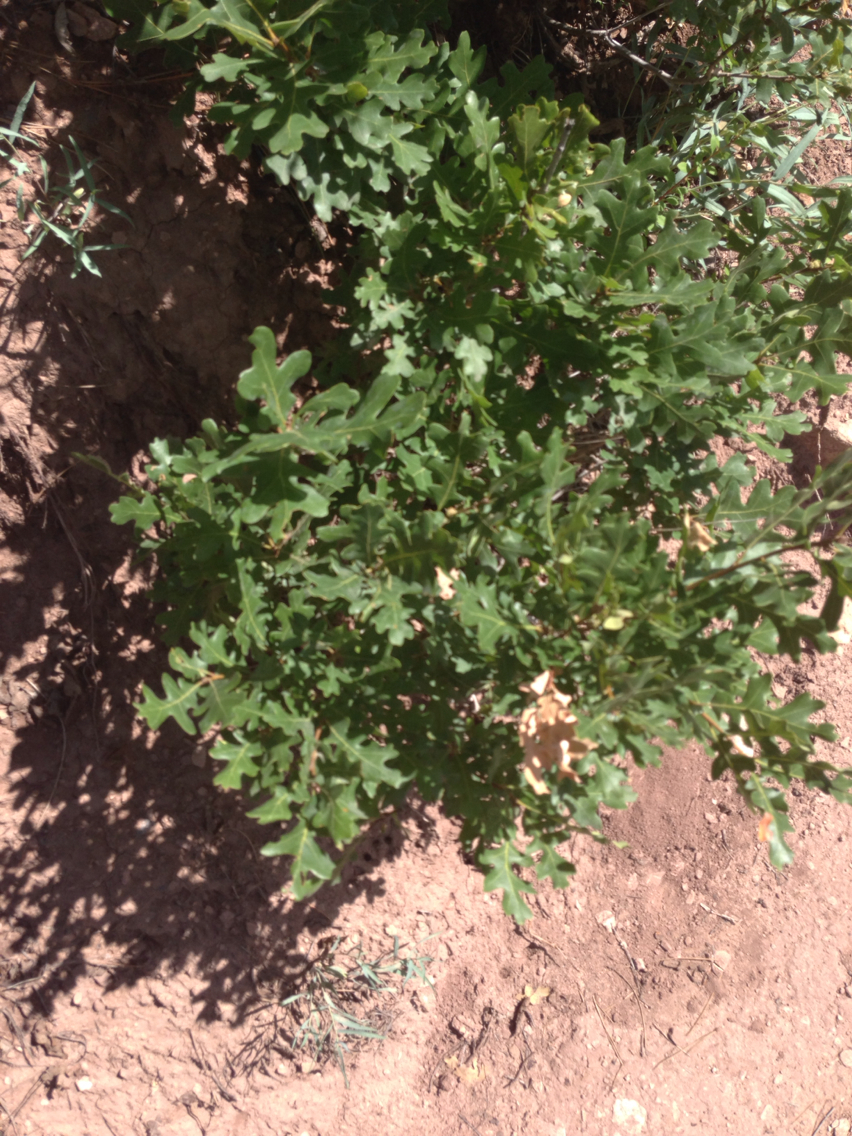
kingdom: Plantae
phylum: Tracheophyta
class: Magnoliopsida
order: Fagales
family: Fagaceae
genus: Quercus
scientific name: Quercus gambelii
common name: Gambel oak
